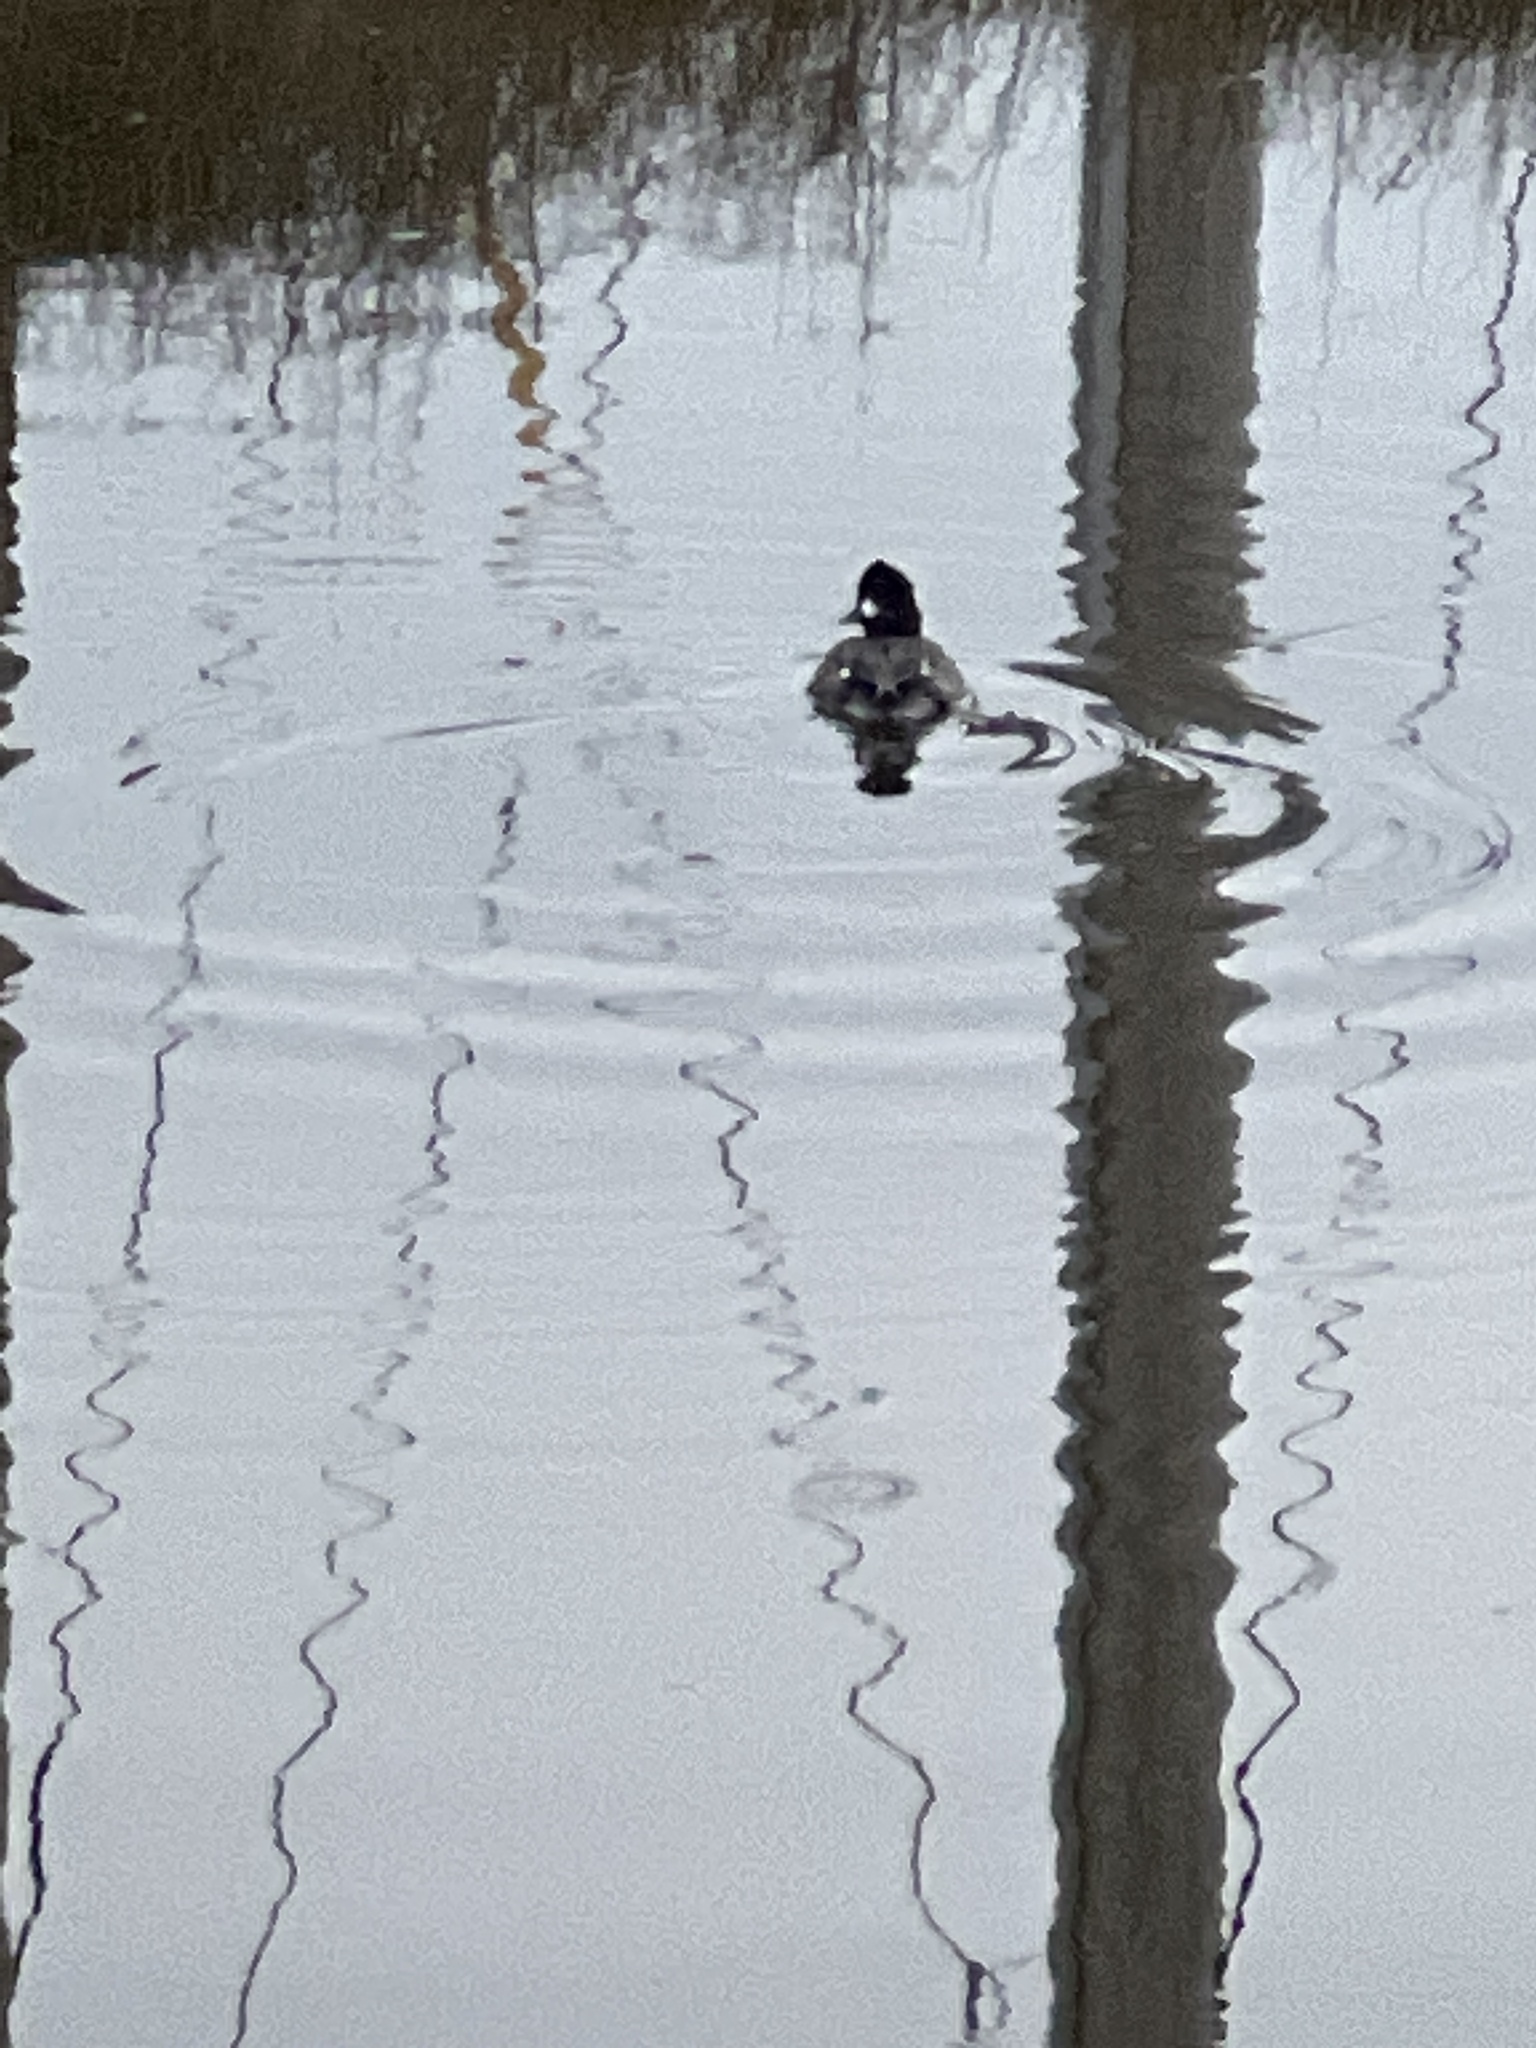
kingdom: Animalia
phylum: Chordata
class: Aves
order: Anseriformes
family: Anatidae
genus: Bucephala
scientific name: Bucephala albeola
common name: Bufflehead
